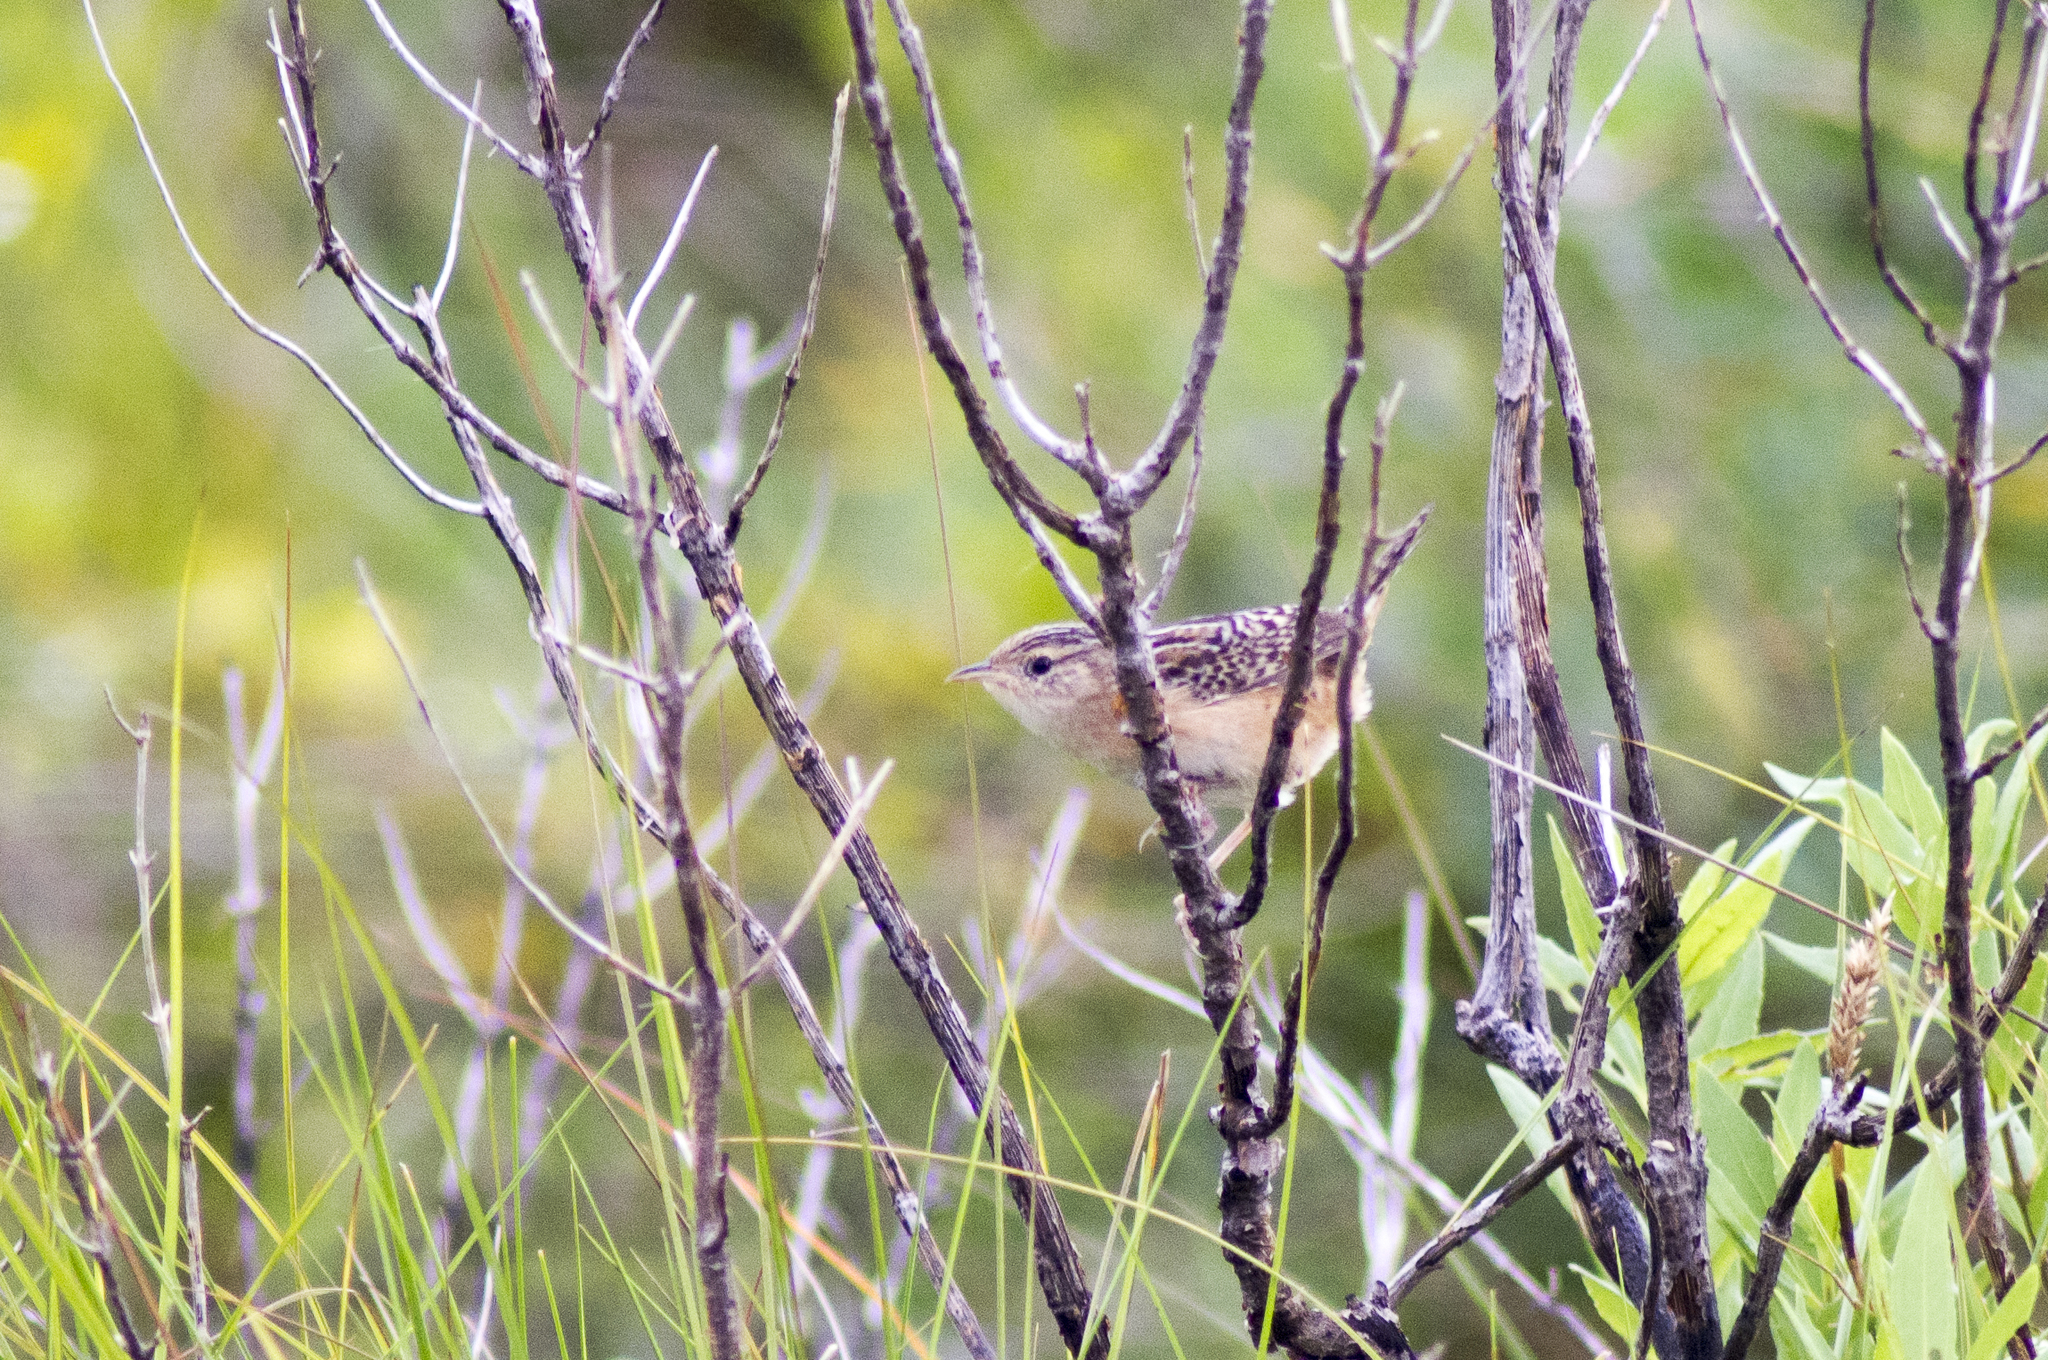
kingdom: Animalia
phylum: Chordata
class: Aves
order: Passeriformes
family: Troglodytidae
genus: Cistothorus
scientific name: Cistothorus platensis
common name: Sedge wren
